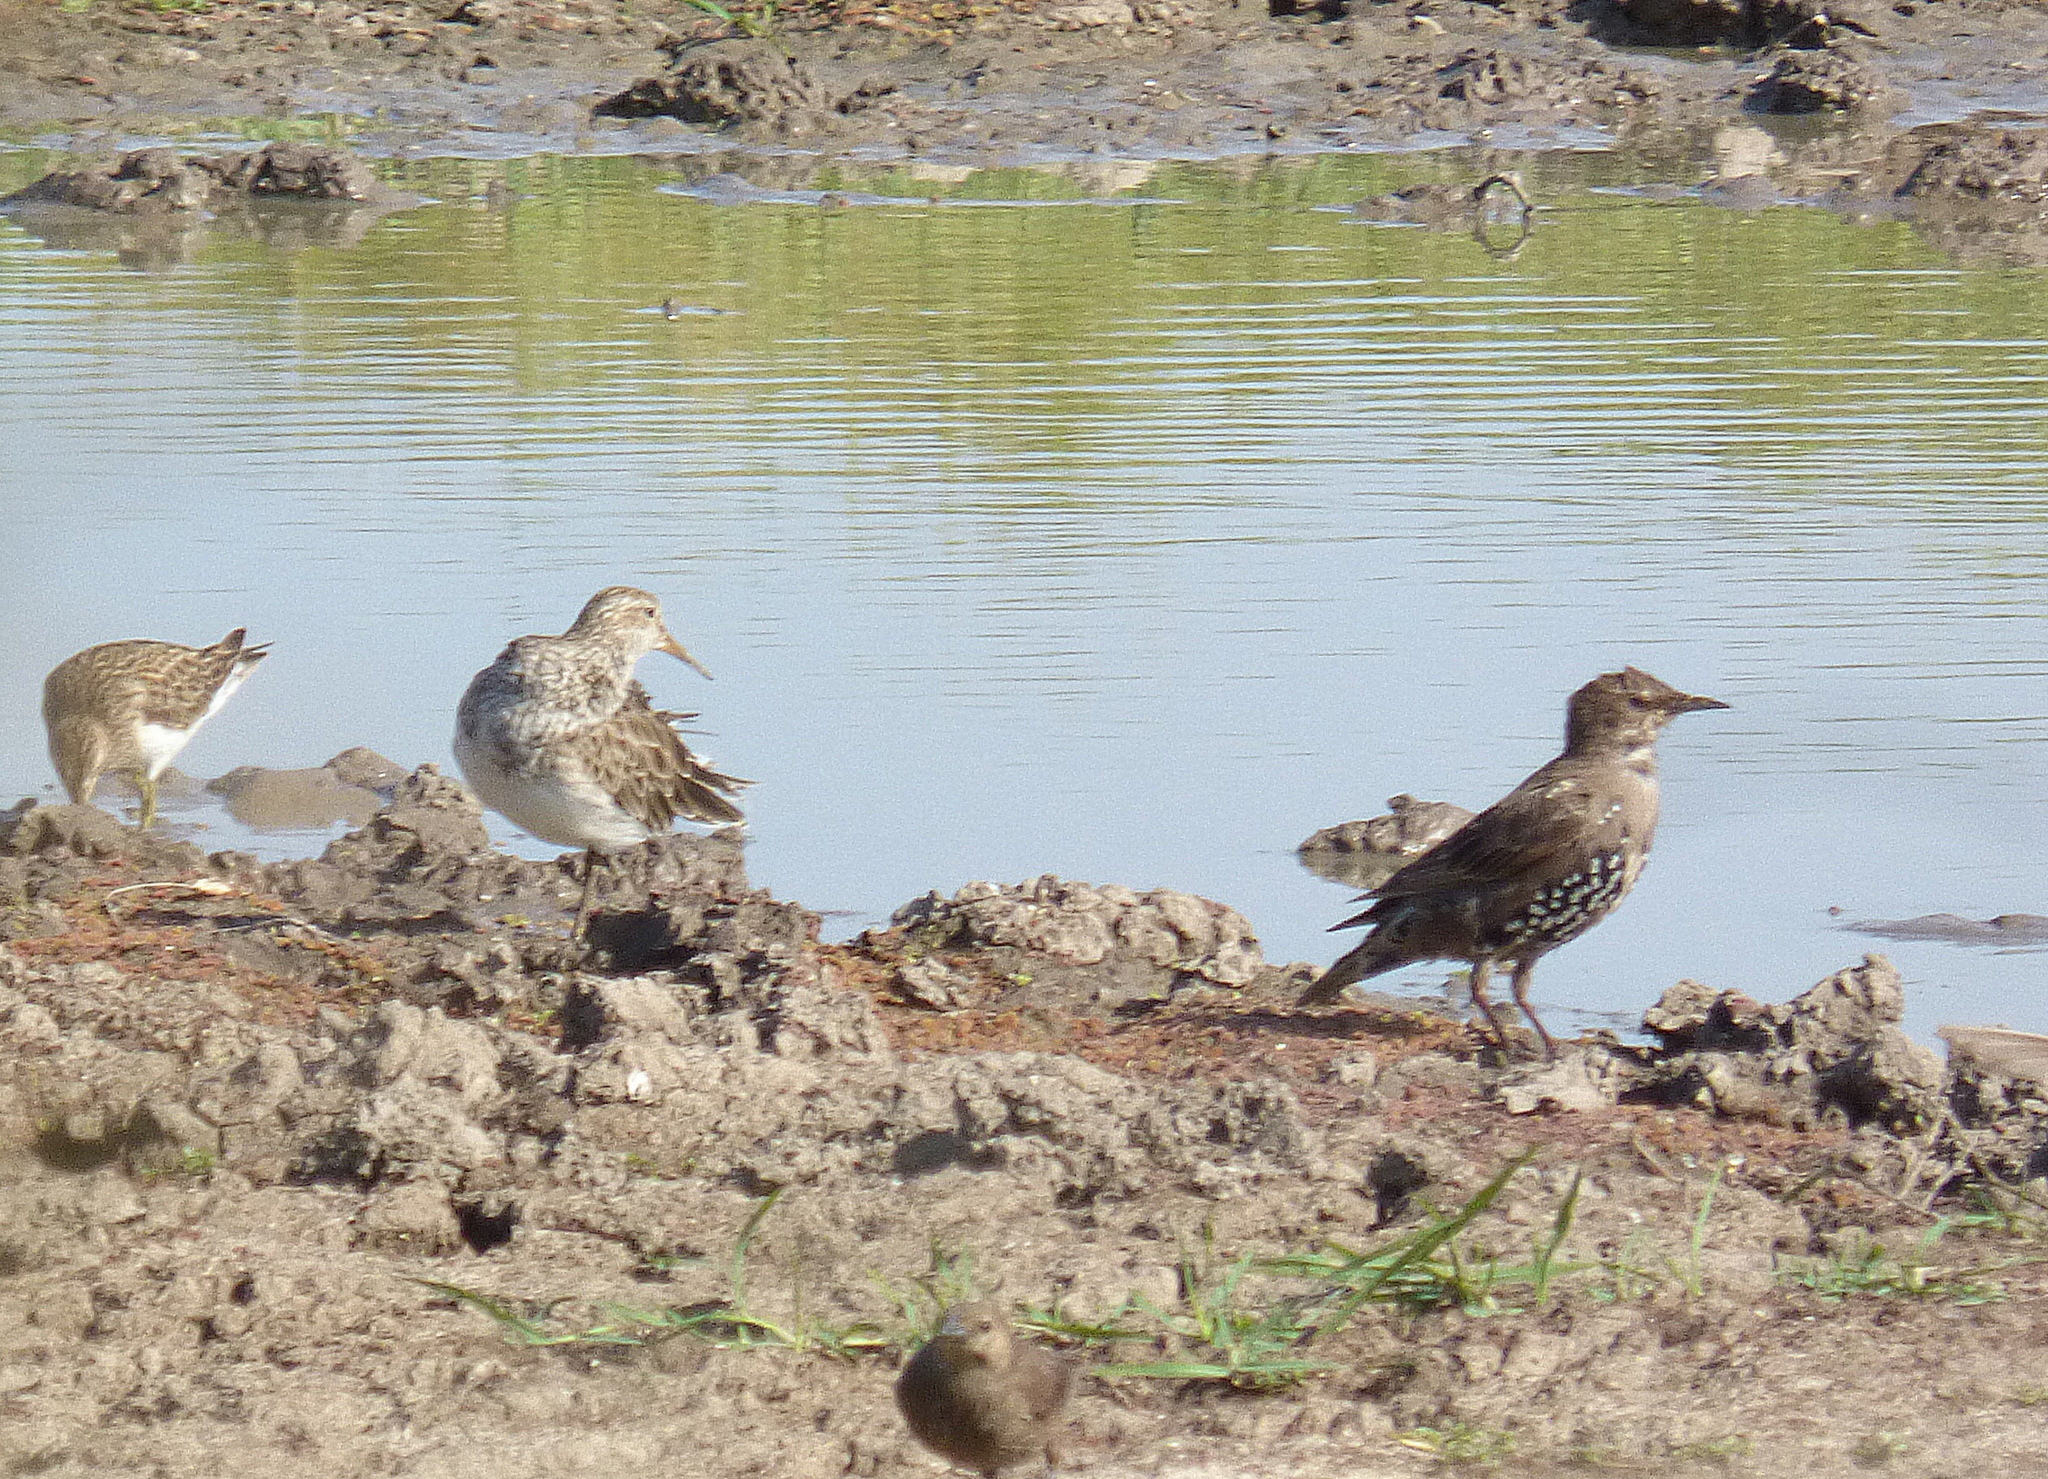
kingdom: Animalia
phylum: Chordata
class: Aves
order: Passeriformes
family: Sturnidae
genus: Sturnus
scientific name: Sturnus vulgaris
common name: Common starling
